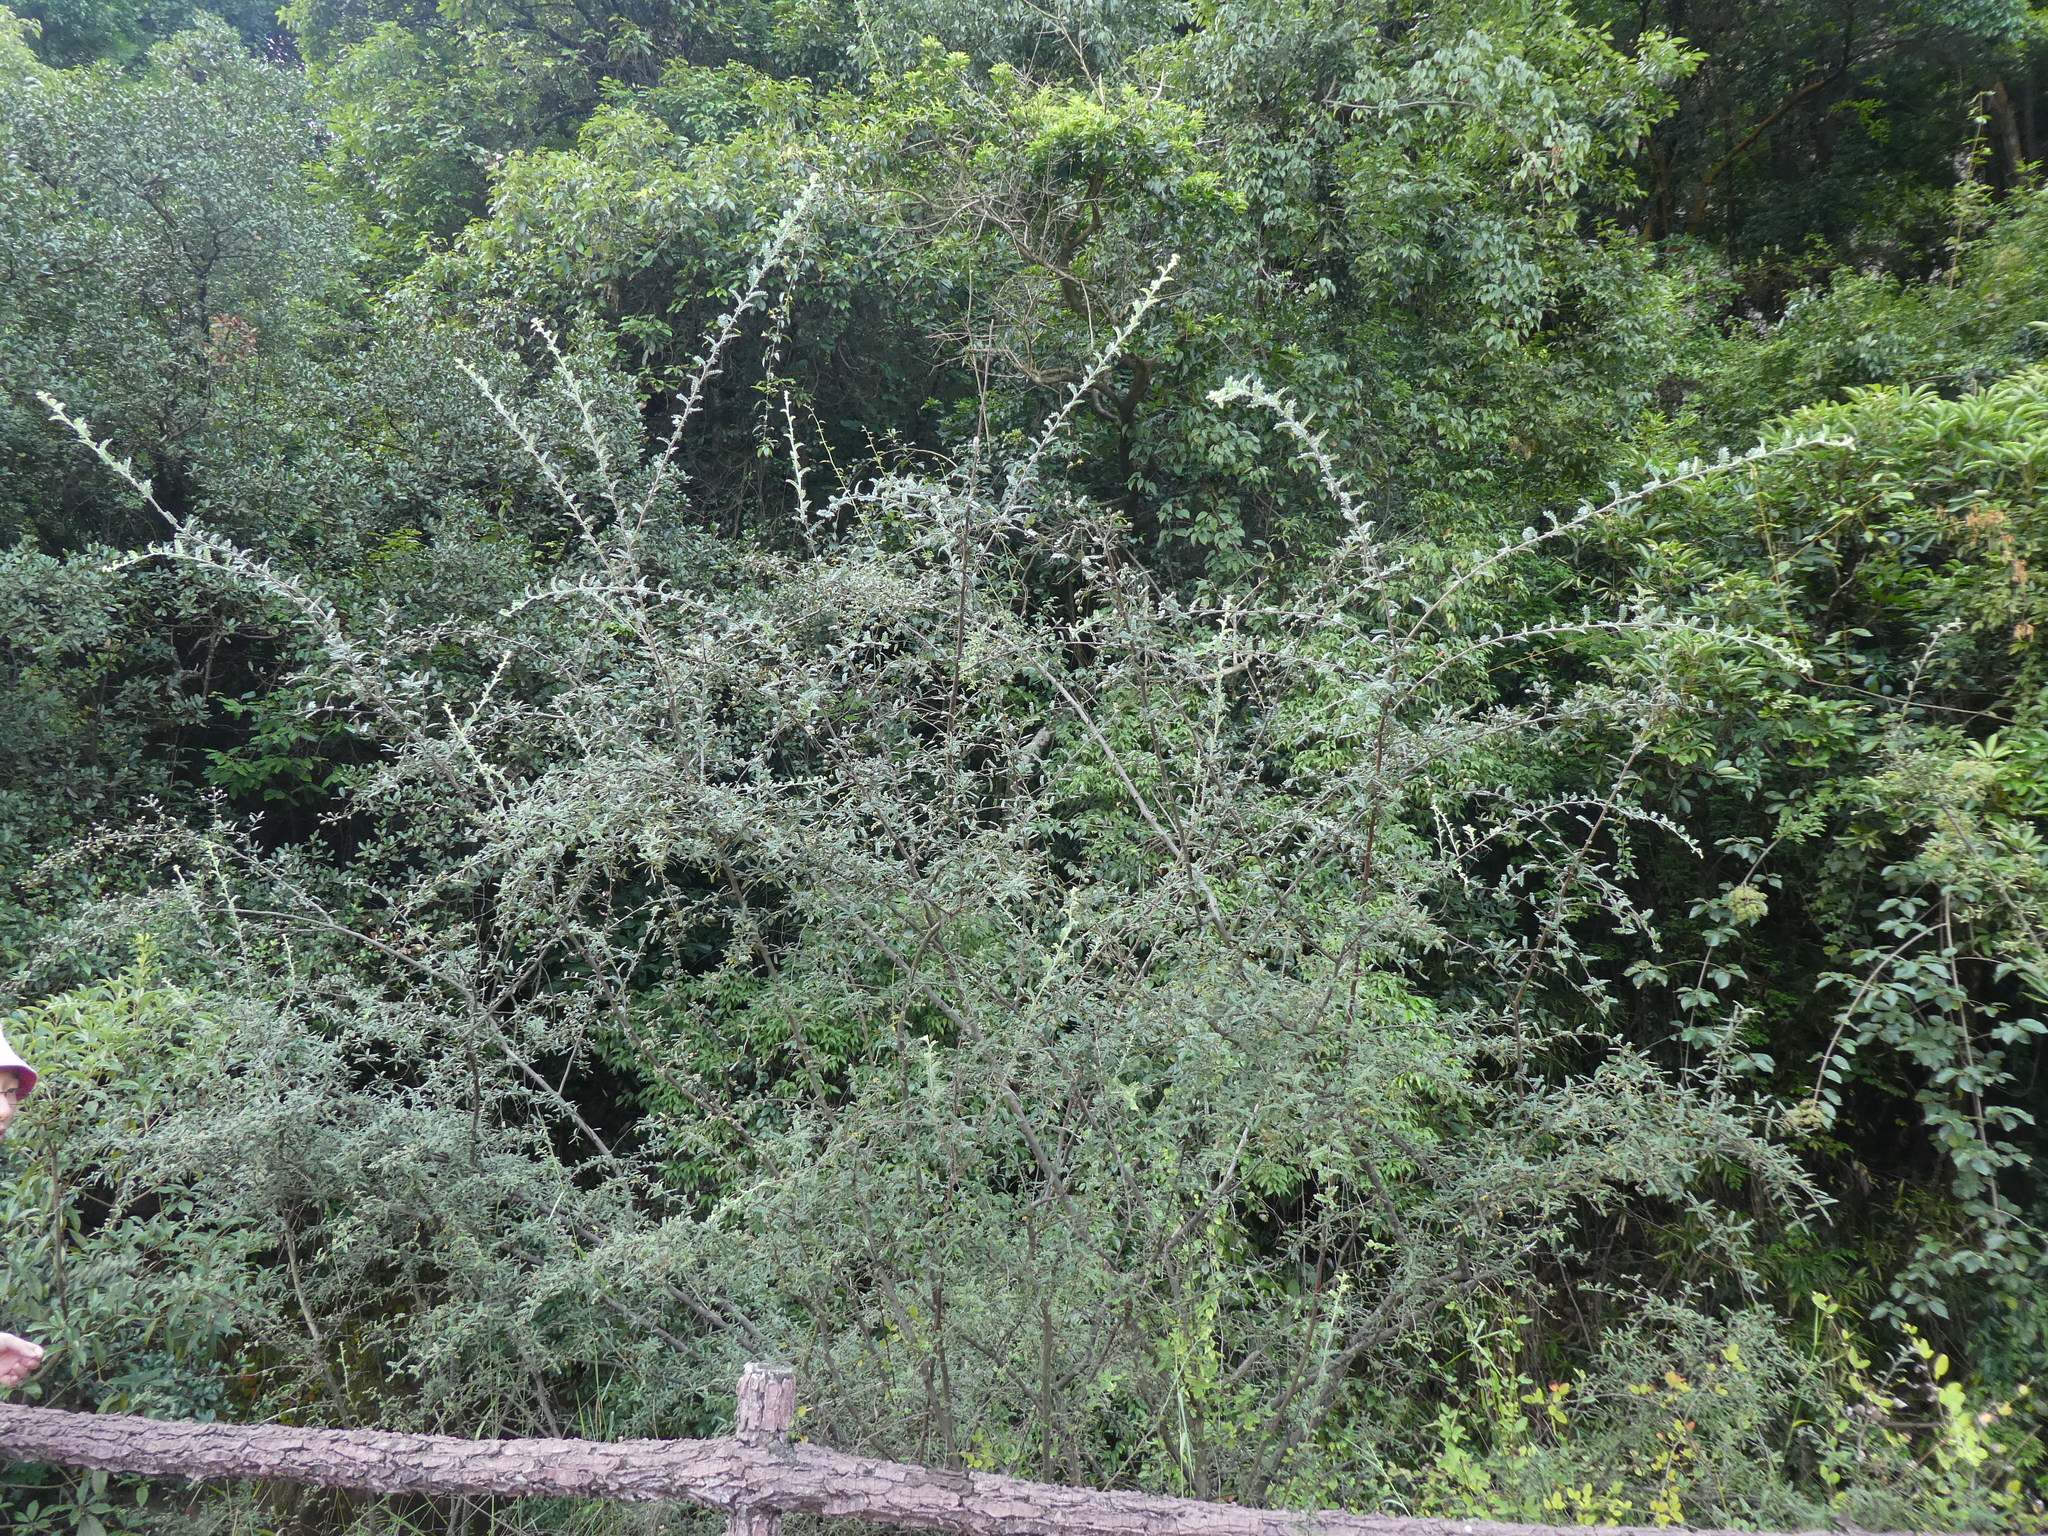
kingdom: Plantae
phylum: Tracheophyta
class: Magnoliopsida
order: Rosales
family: Rosaceae
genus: Osteomeles
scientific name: Osteomeles subrotunda
